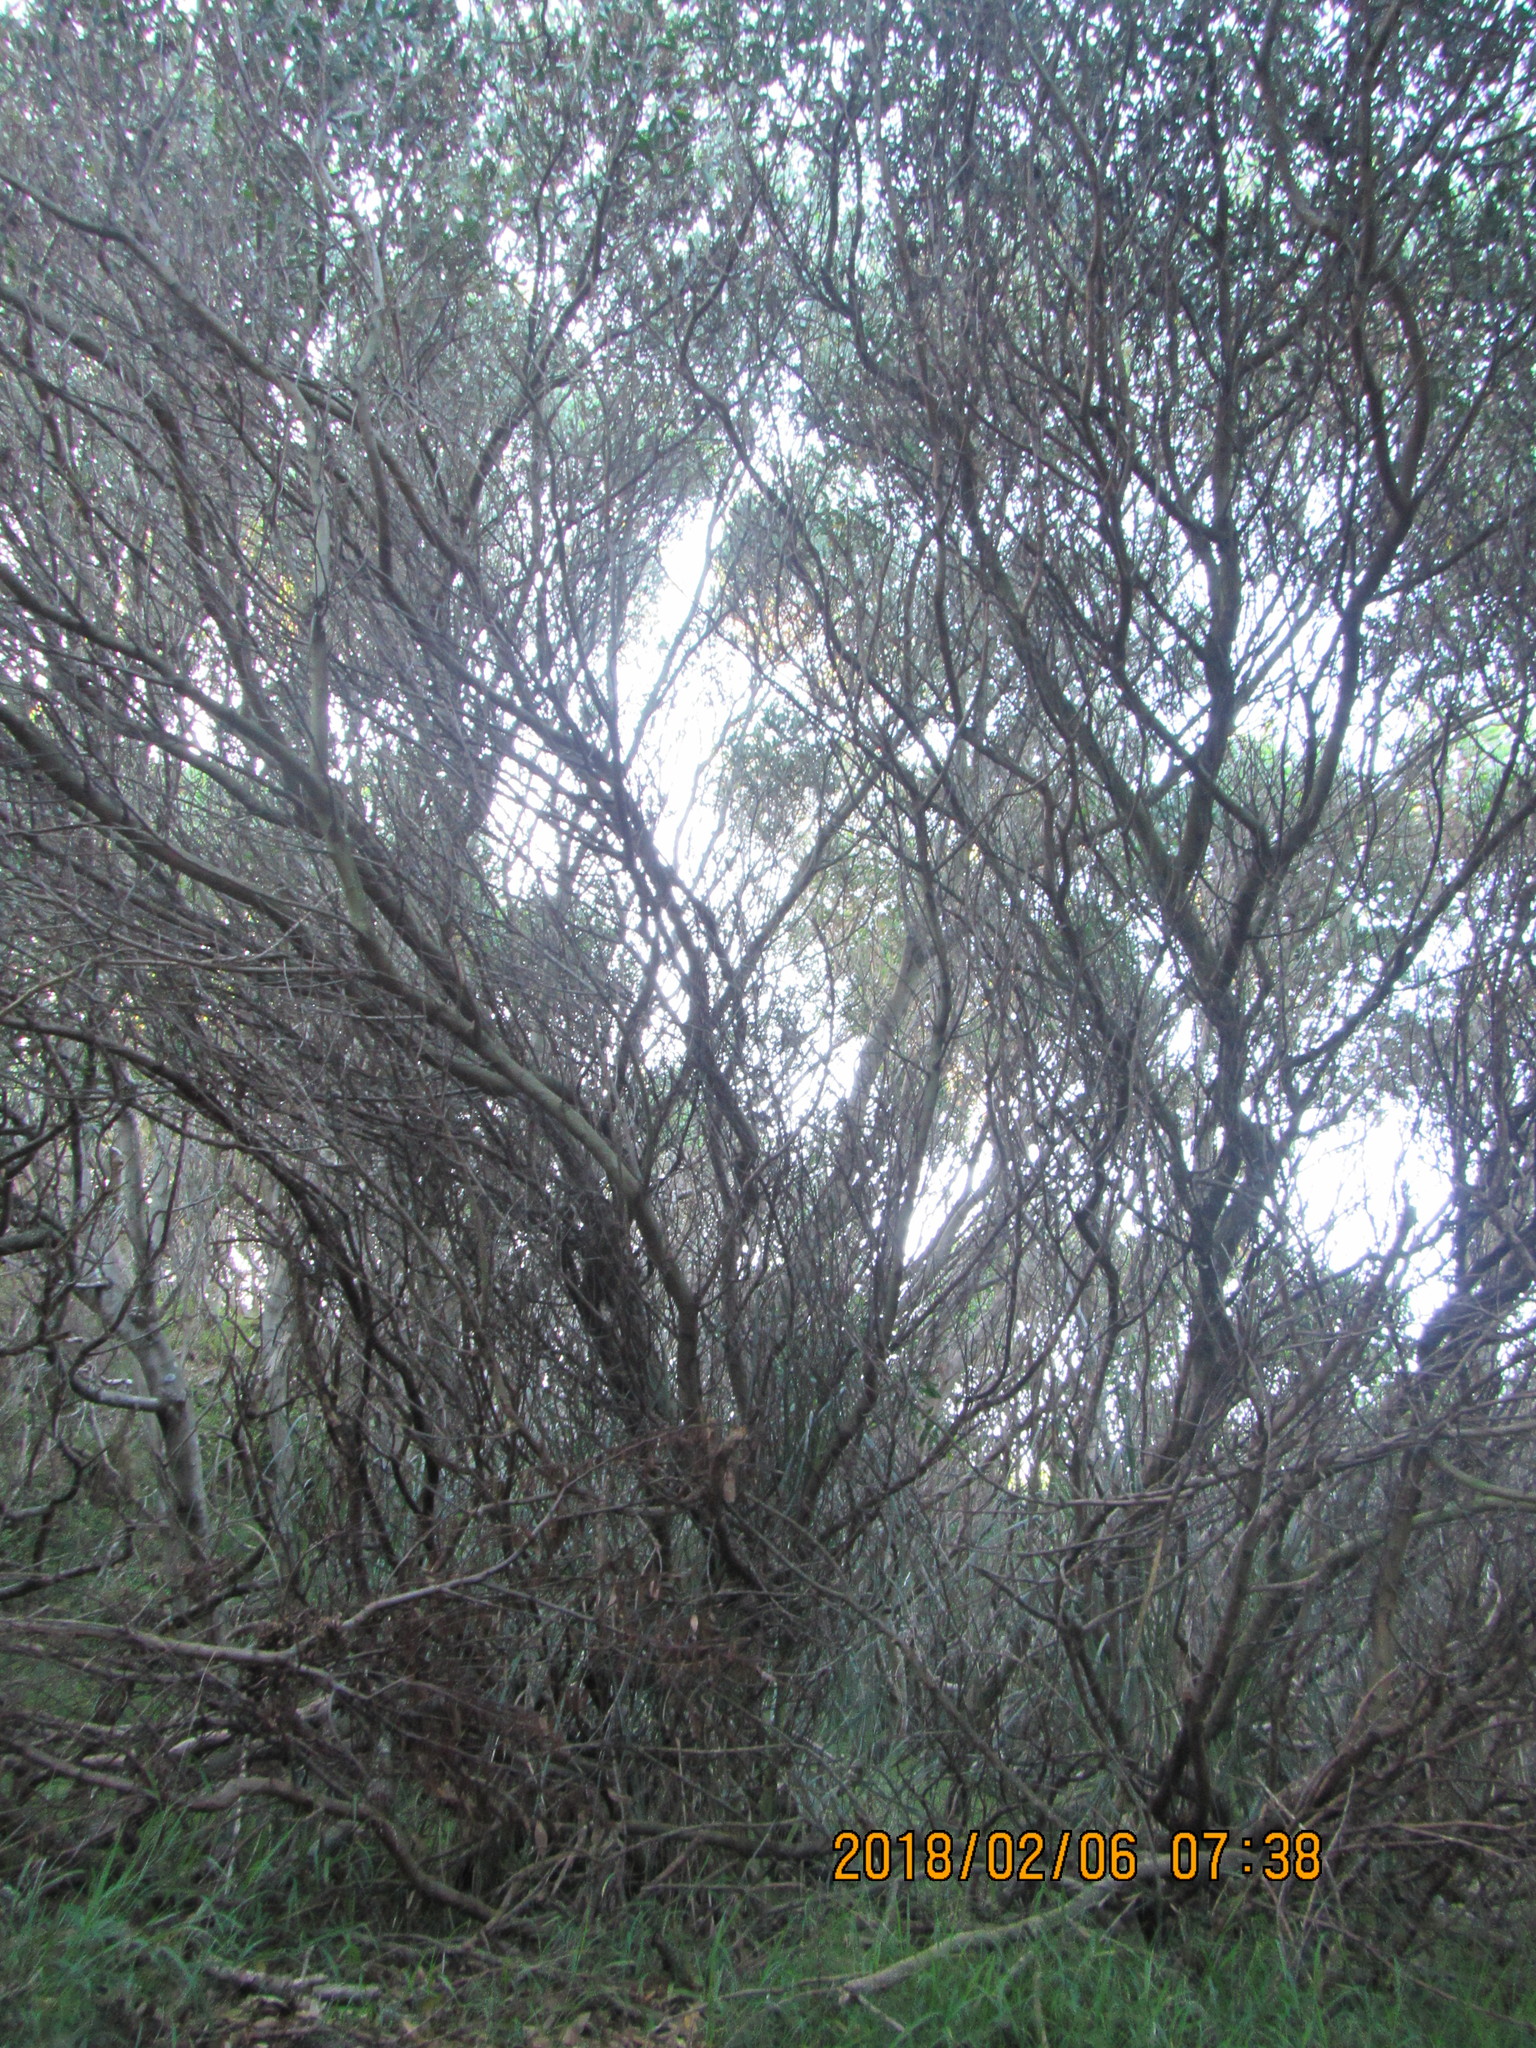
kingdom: Plantae
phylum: Tracheophyta
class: Magnoliopsida
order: Fabales
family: Fabaceae
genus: Acacia
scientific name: Acacia longifolia
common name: Sydney golden wattle
